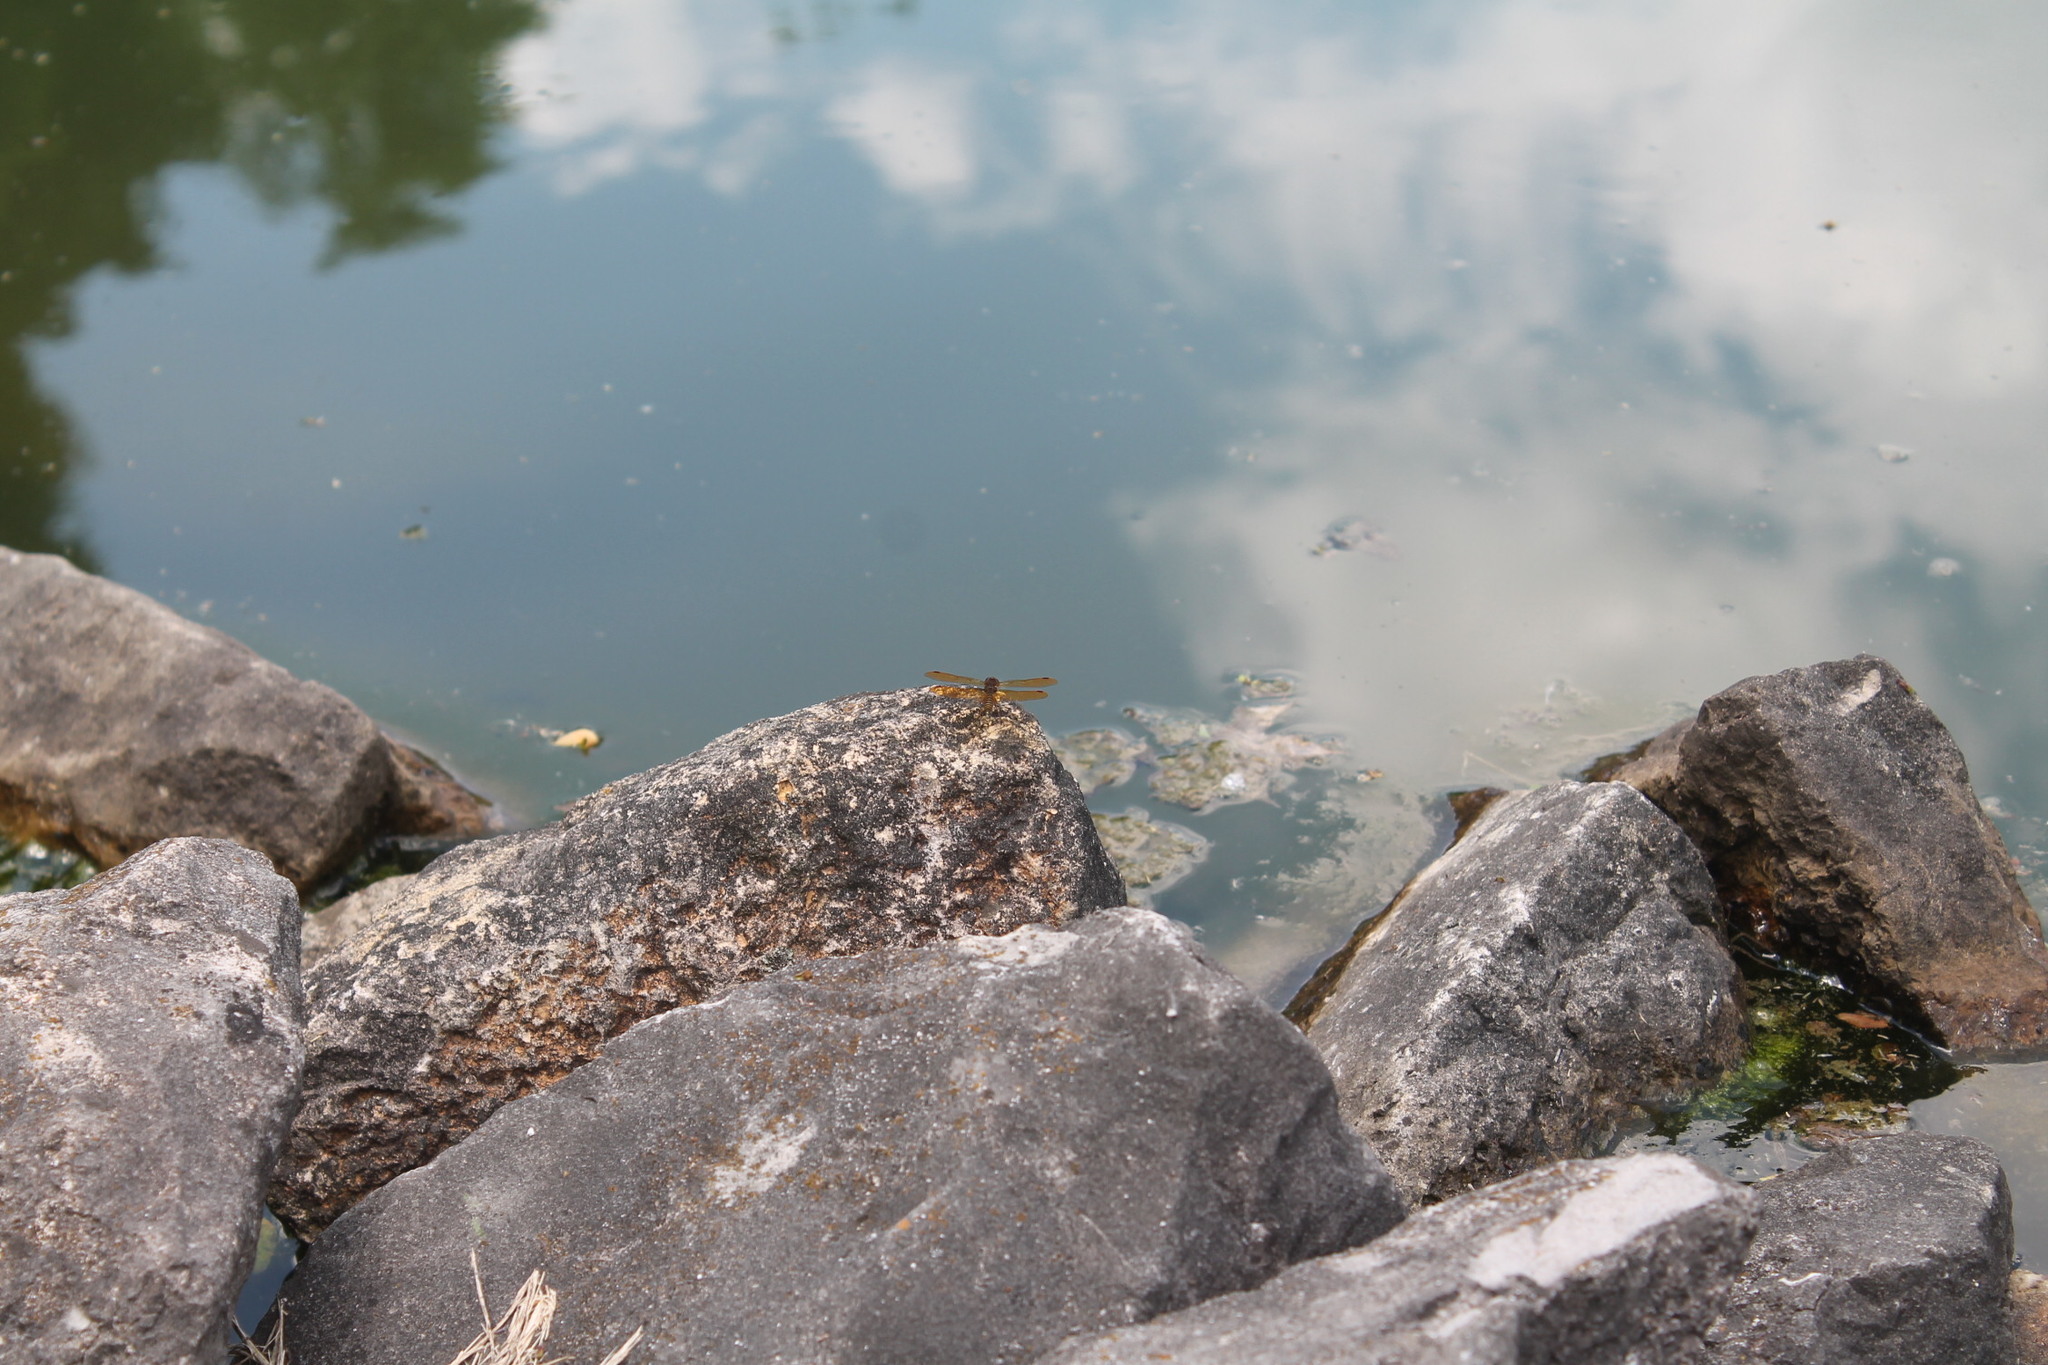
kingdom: Animalia
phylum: Arthropoda
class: Insecta
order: Odonata
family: Libellulidae
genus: Perithemis
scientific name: Perithemis tenera
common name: Eastern amberwing
